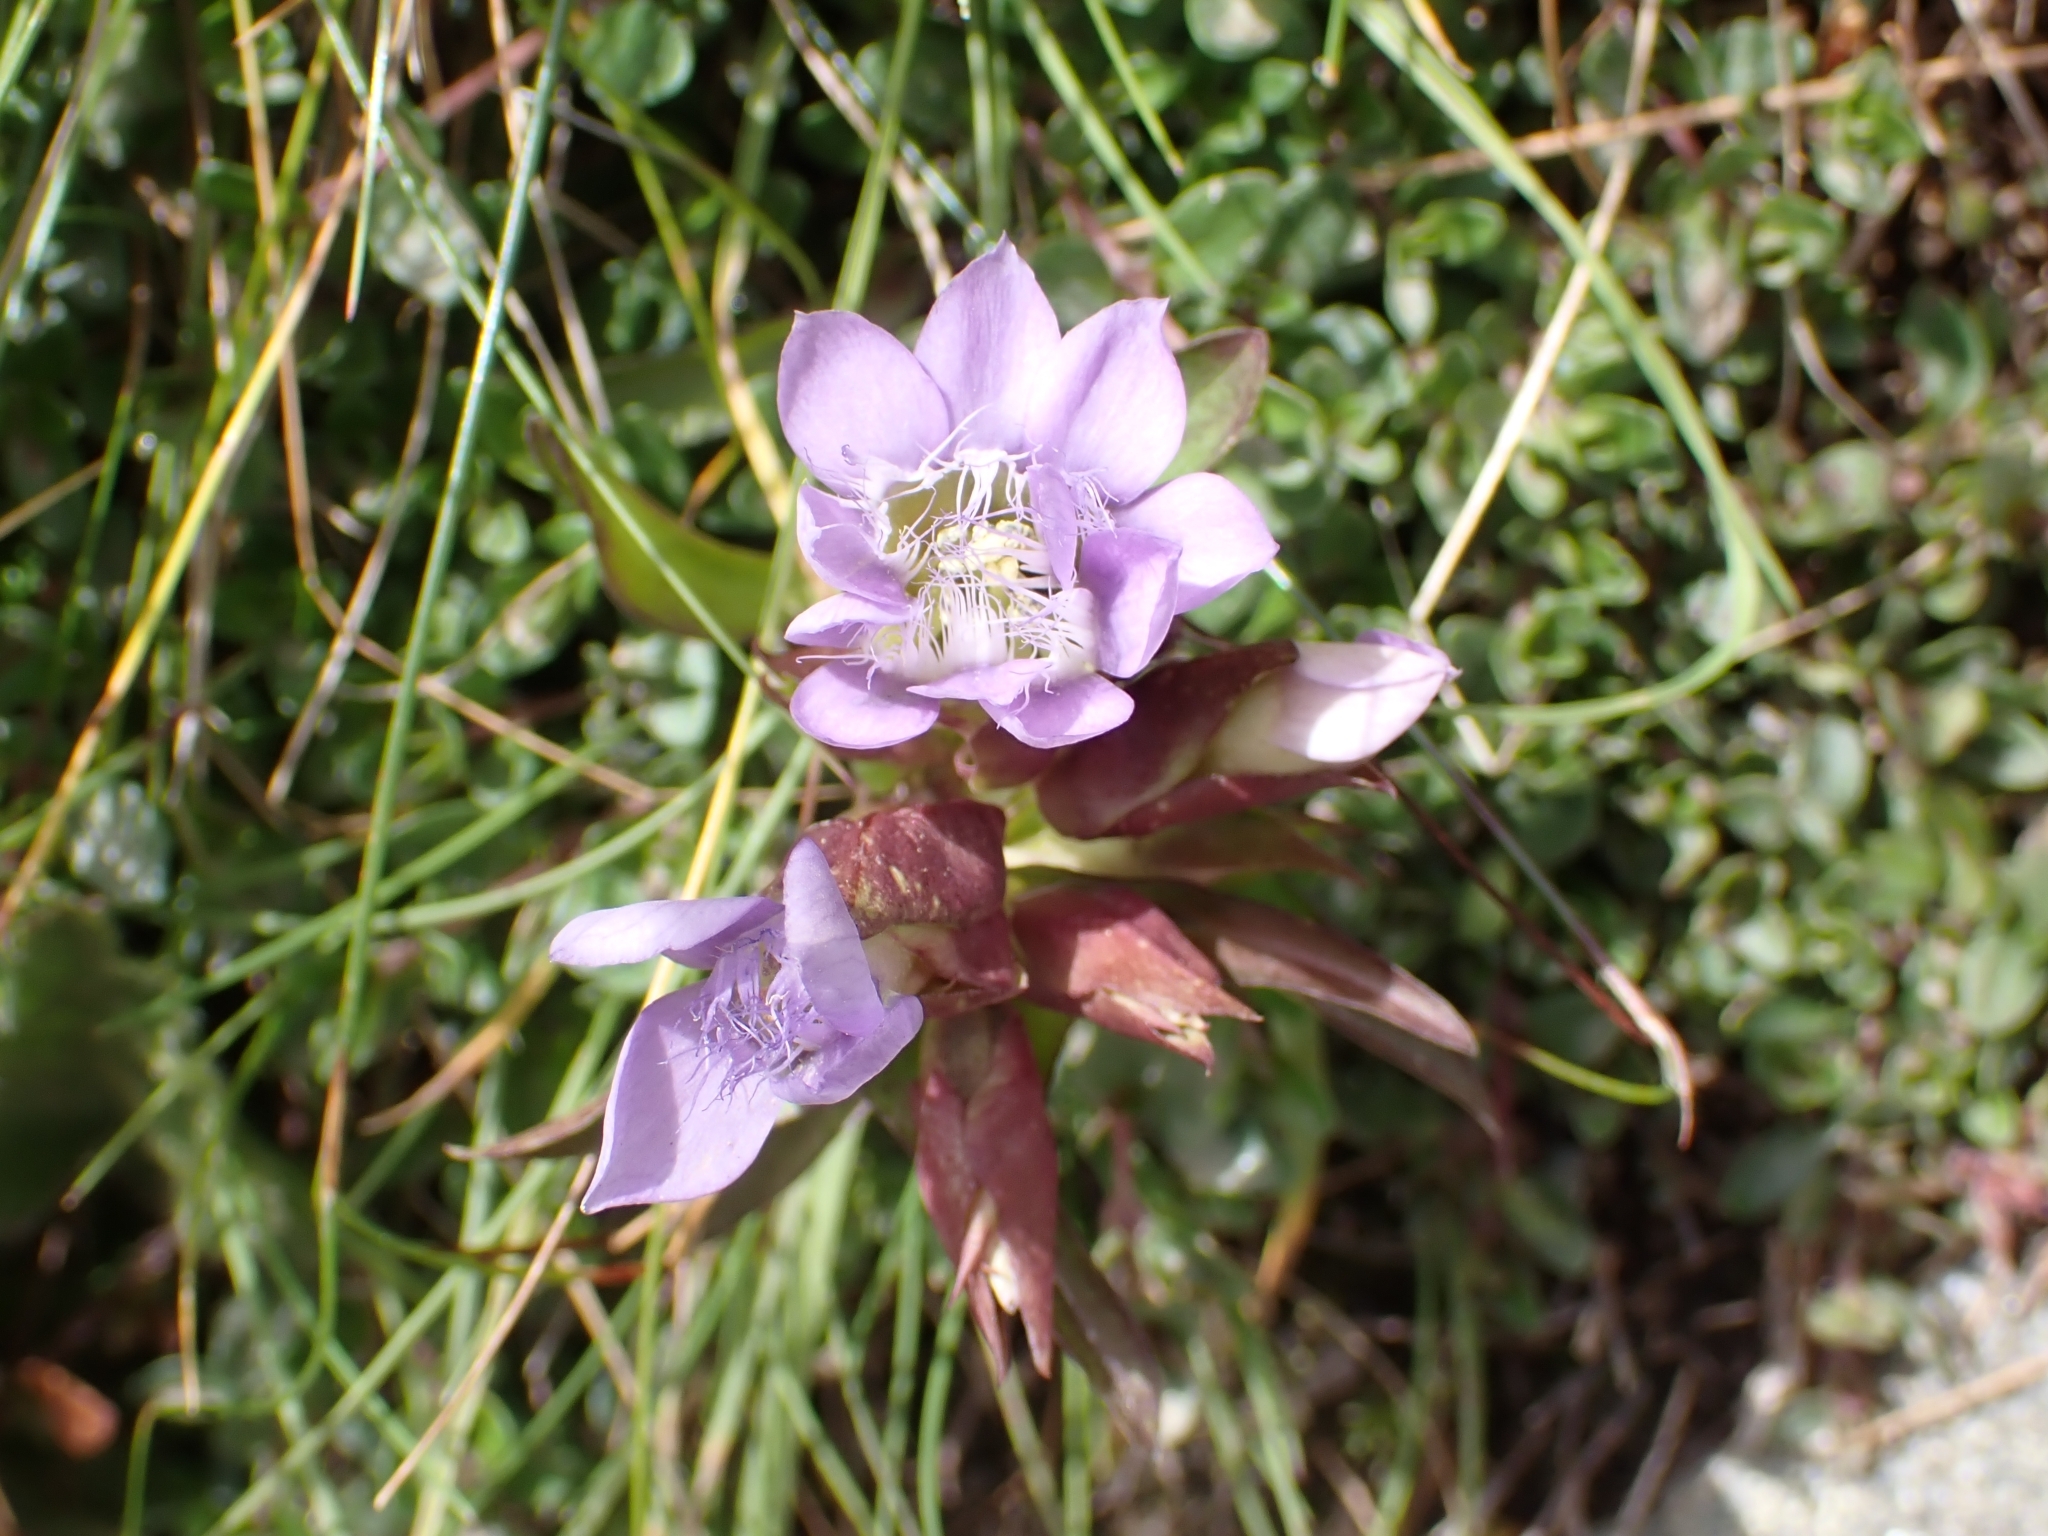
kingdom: Plantae
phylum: Tracheophyta
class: Magnoliopsida
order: Gentianales
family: Gentianaceae
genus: Gentianella
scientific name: Gentianella campestris
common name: Field gentian
